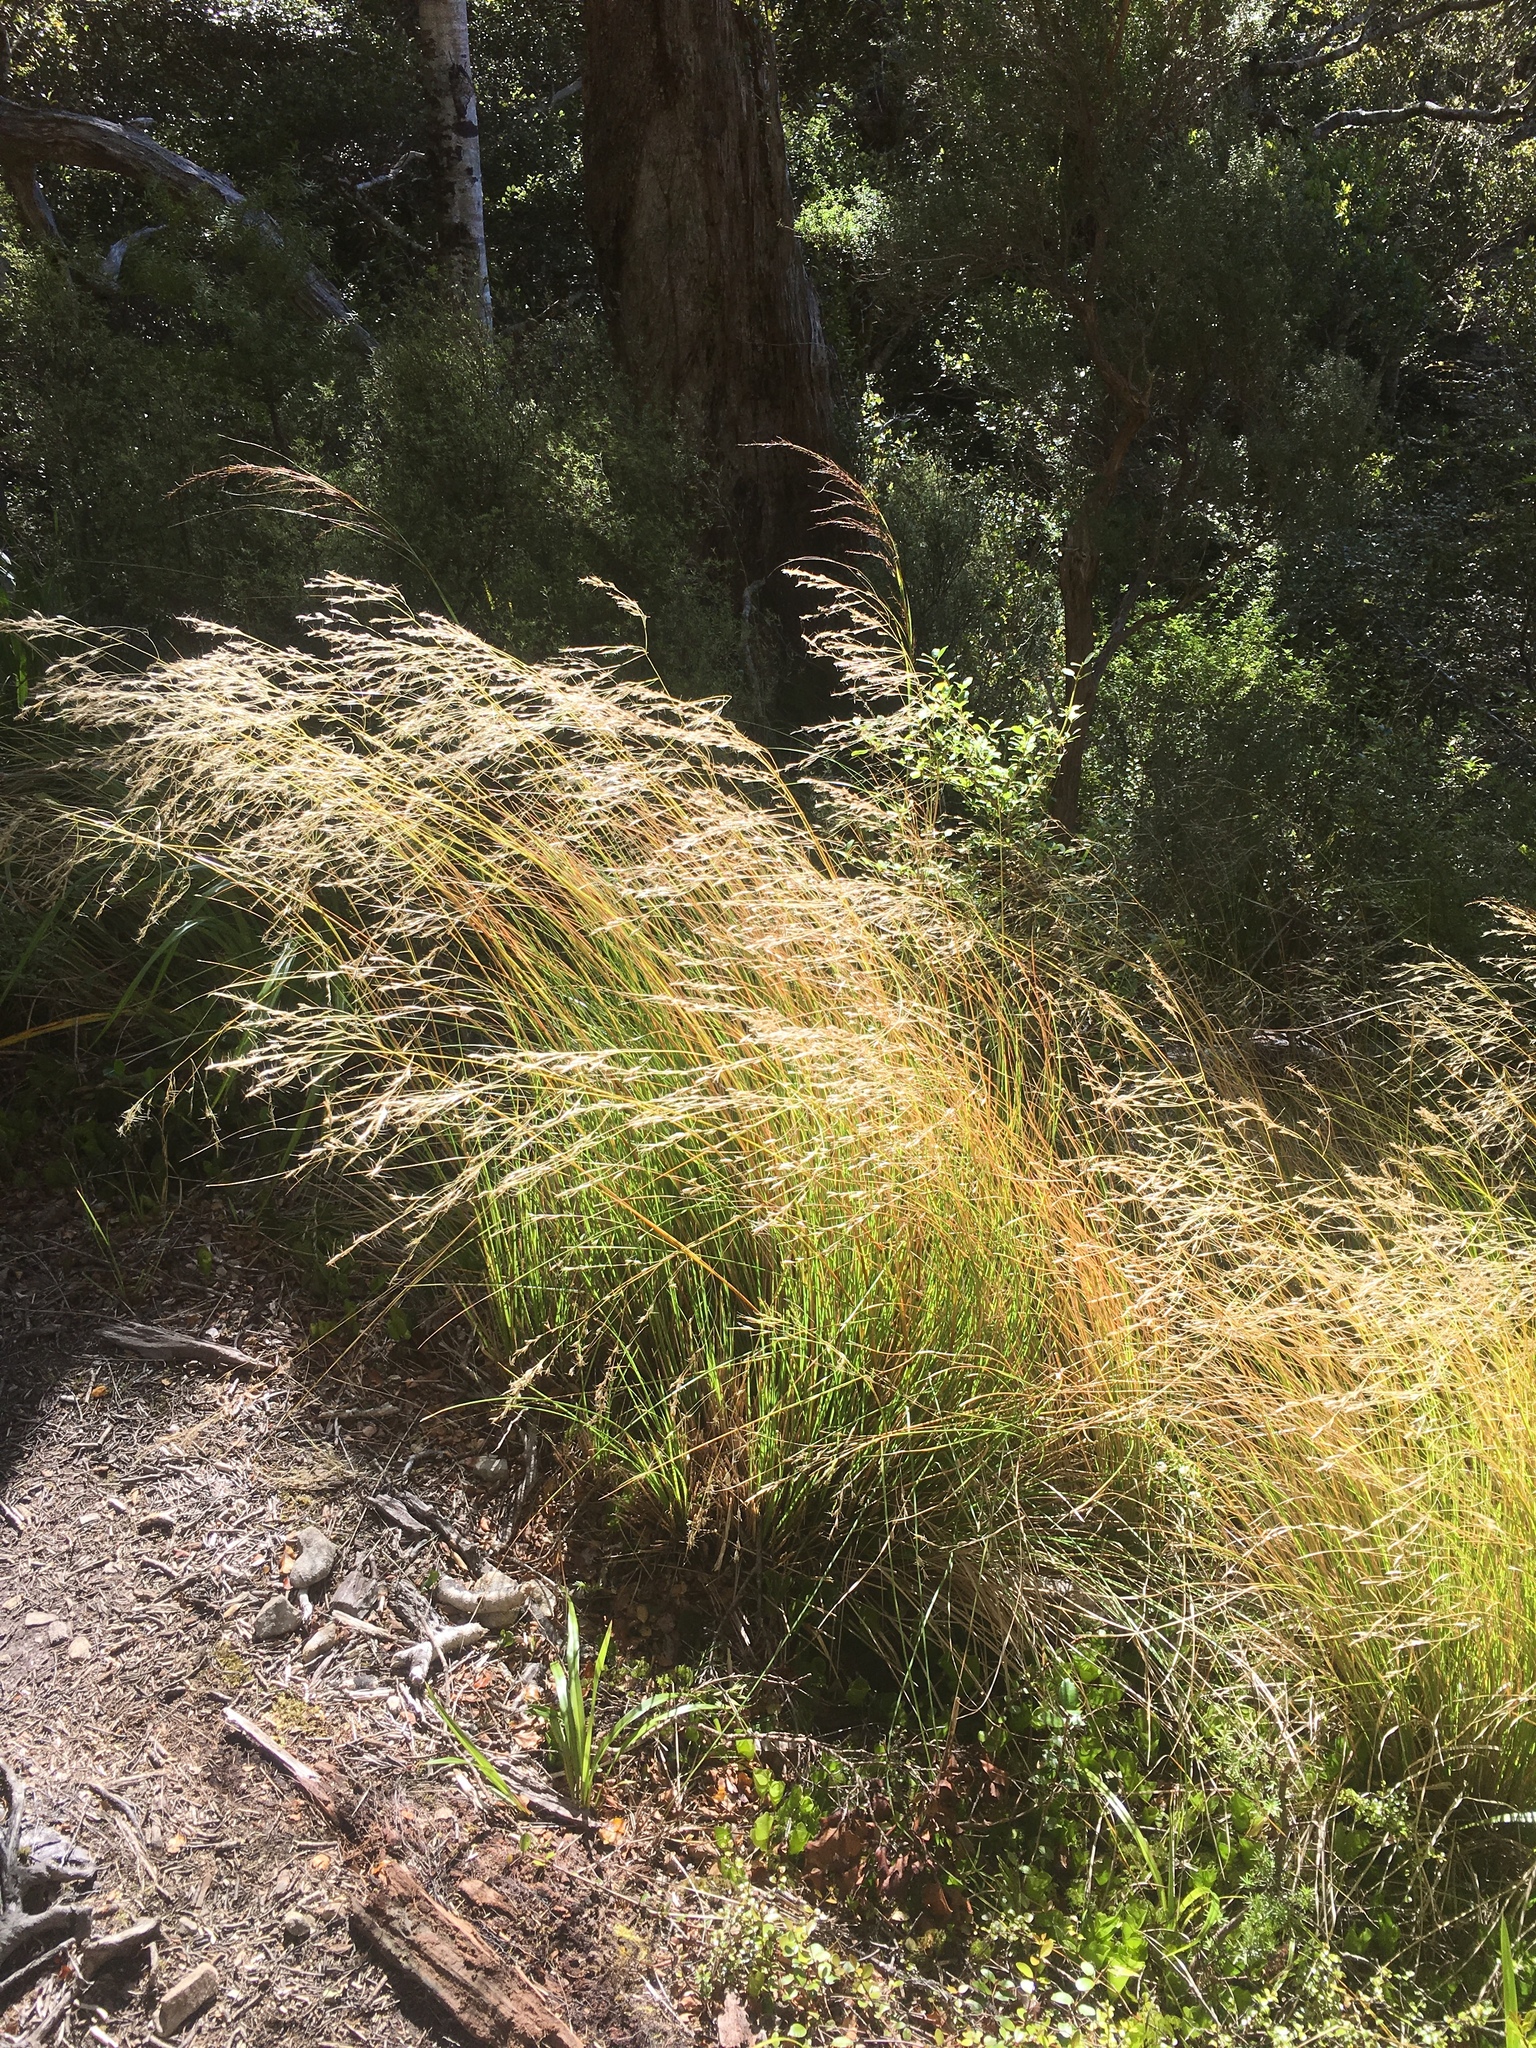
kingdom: Plantae
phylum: Tracheophyta
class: Liliopsida
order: Poales
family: Poaceae
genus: Chionochloa
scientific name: Chionochloa cheesemanii
